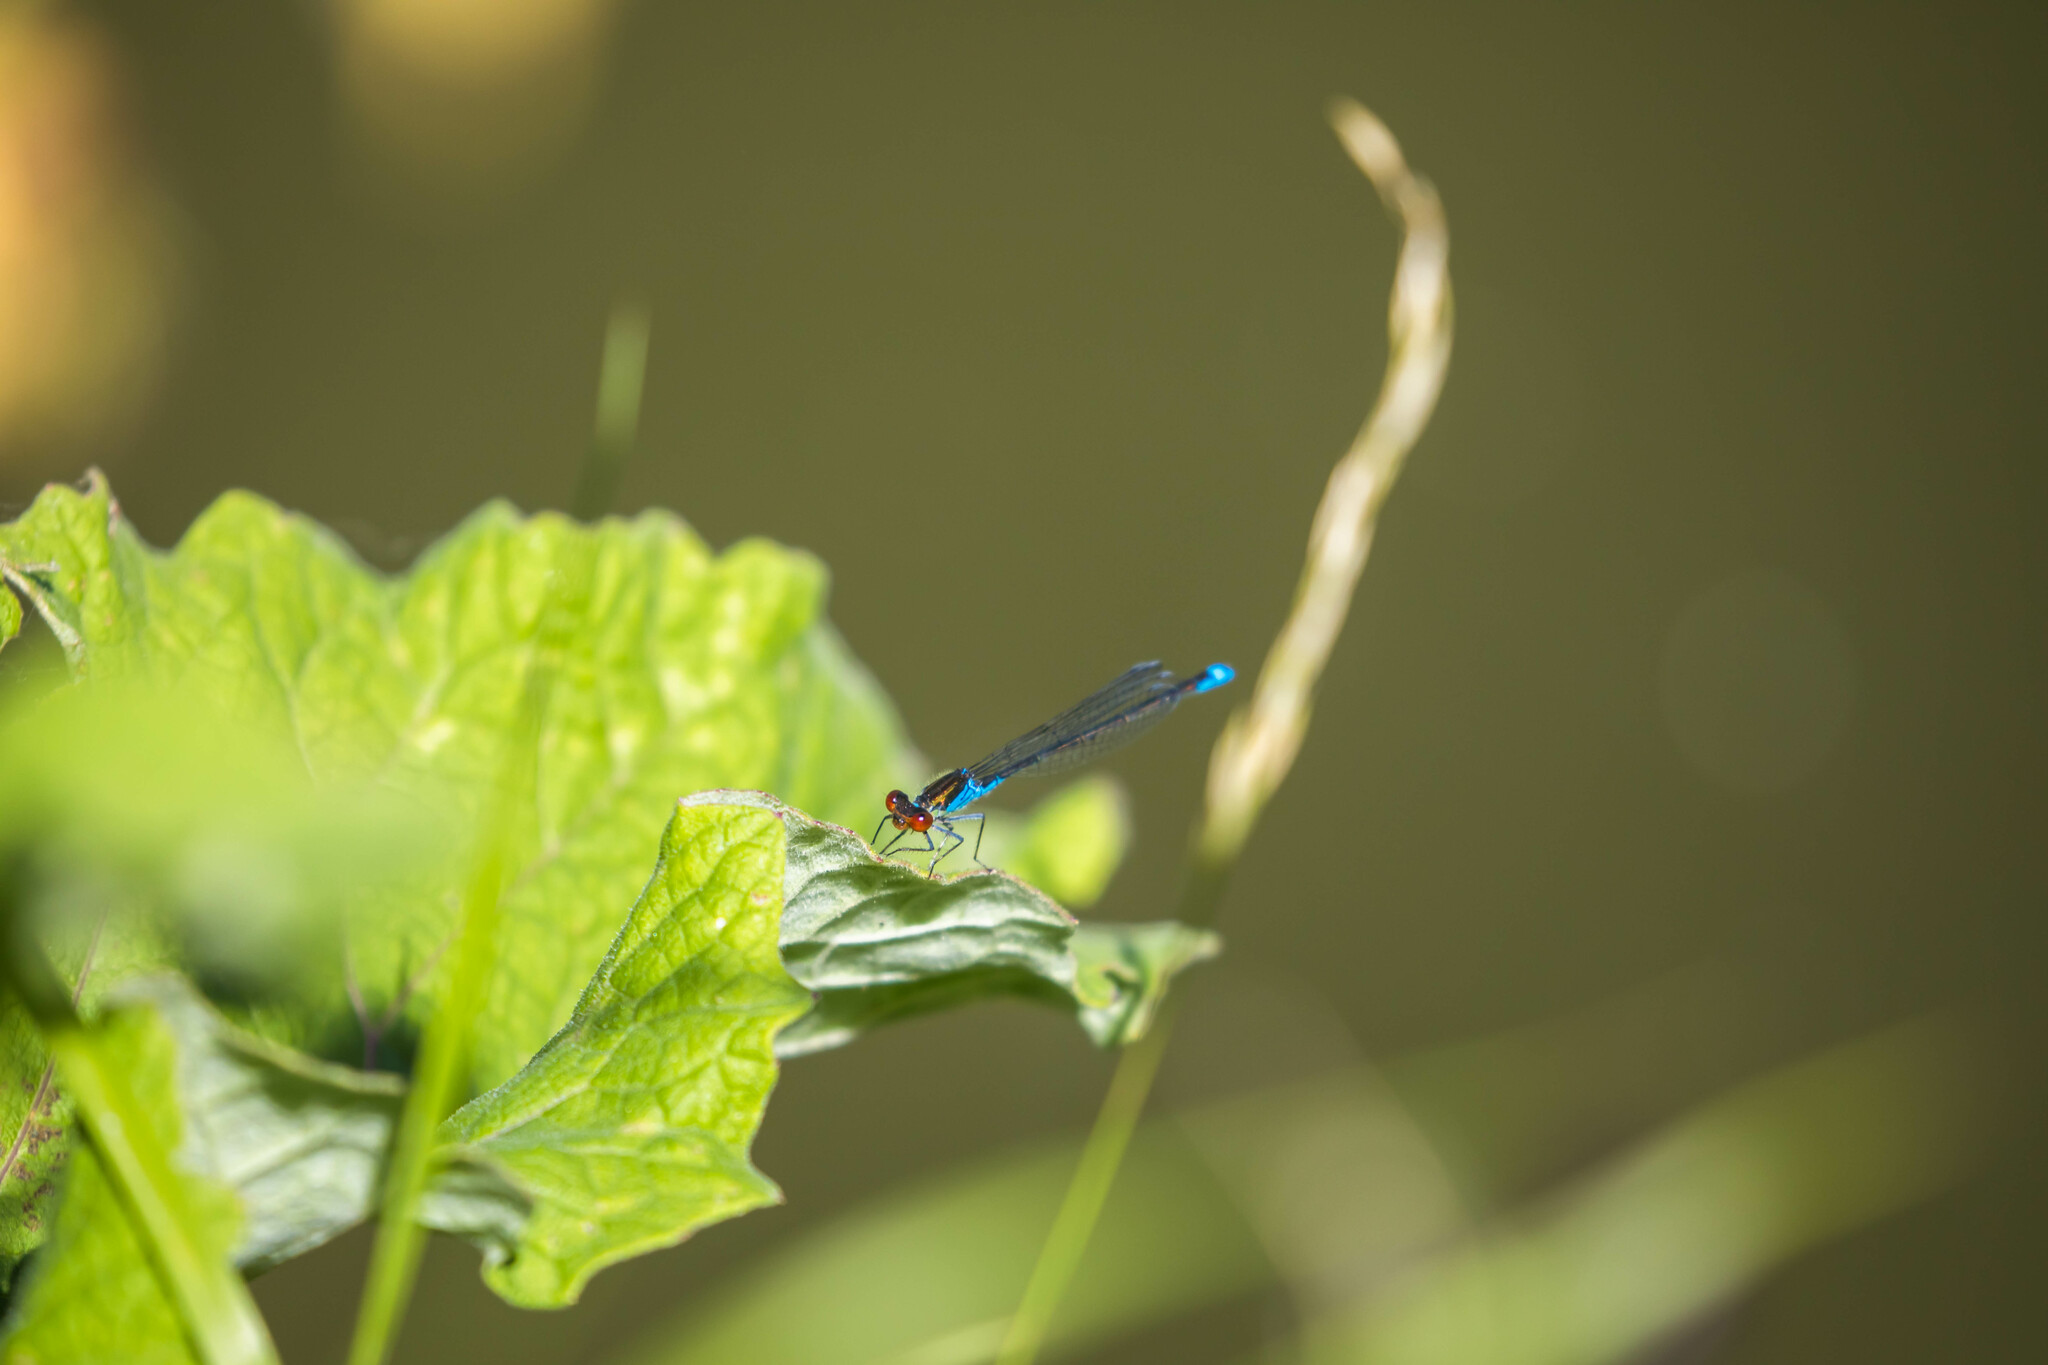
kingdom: Animalia
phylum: Arthropoda
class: Insecta
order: Odonata
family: Coenagrionidae
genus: Erythromma
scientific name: Erythromma viridulum
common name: Small red-eyed damselfly
